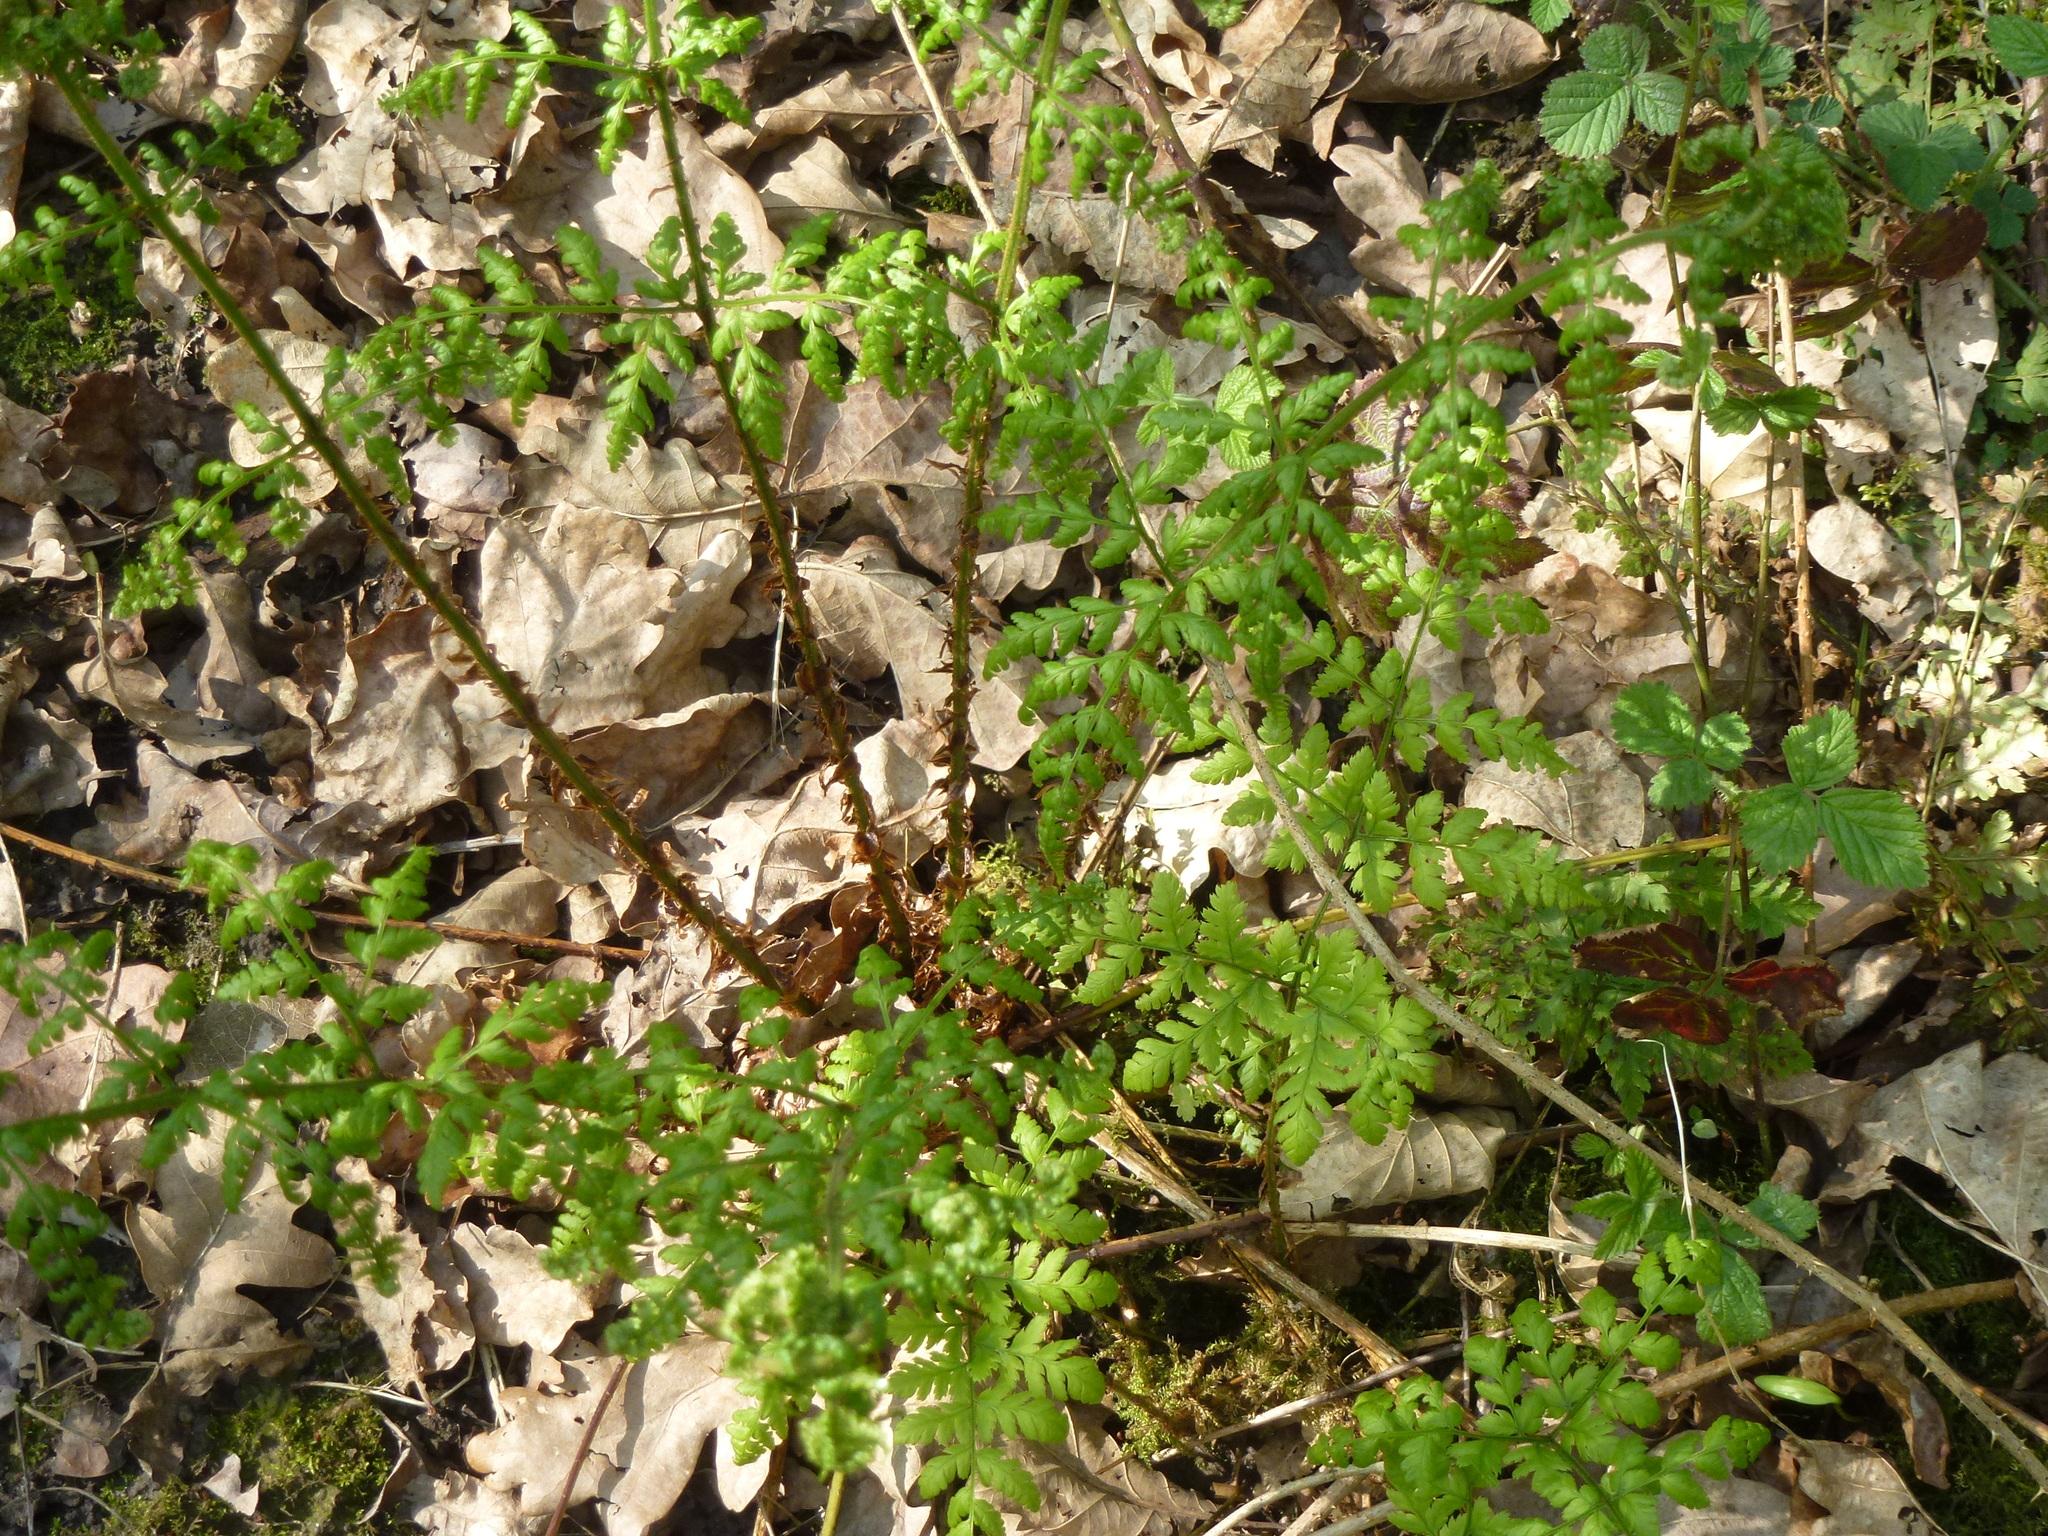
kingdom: Plantae
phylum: Tracheophyta
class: Polypodiopsida
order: Polypodiales
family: Dryopteridaceae
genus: Dryopteris
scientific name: Dryopteris dilatata
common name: Broad buckler-fern
